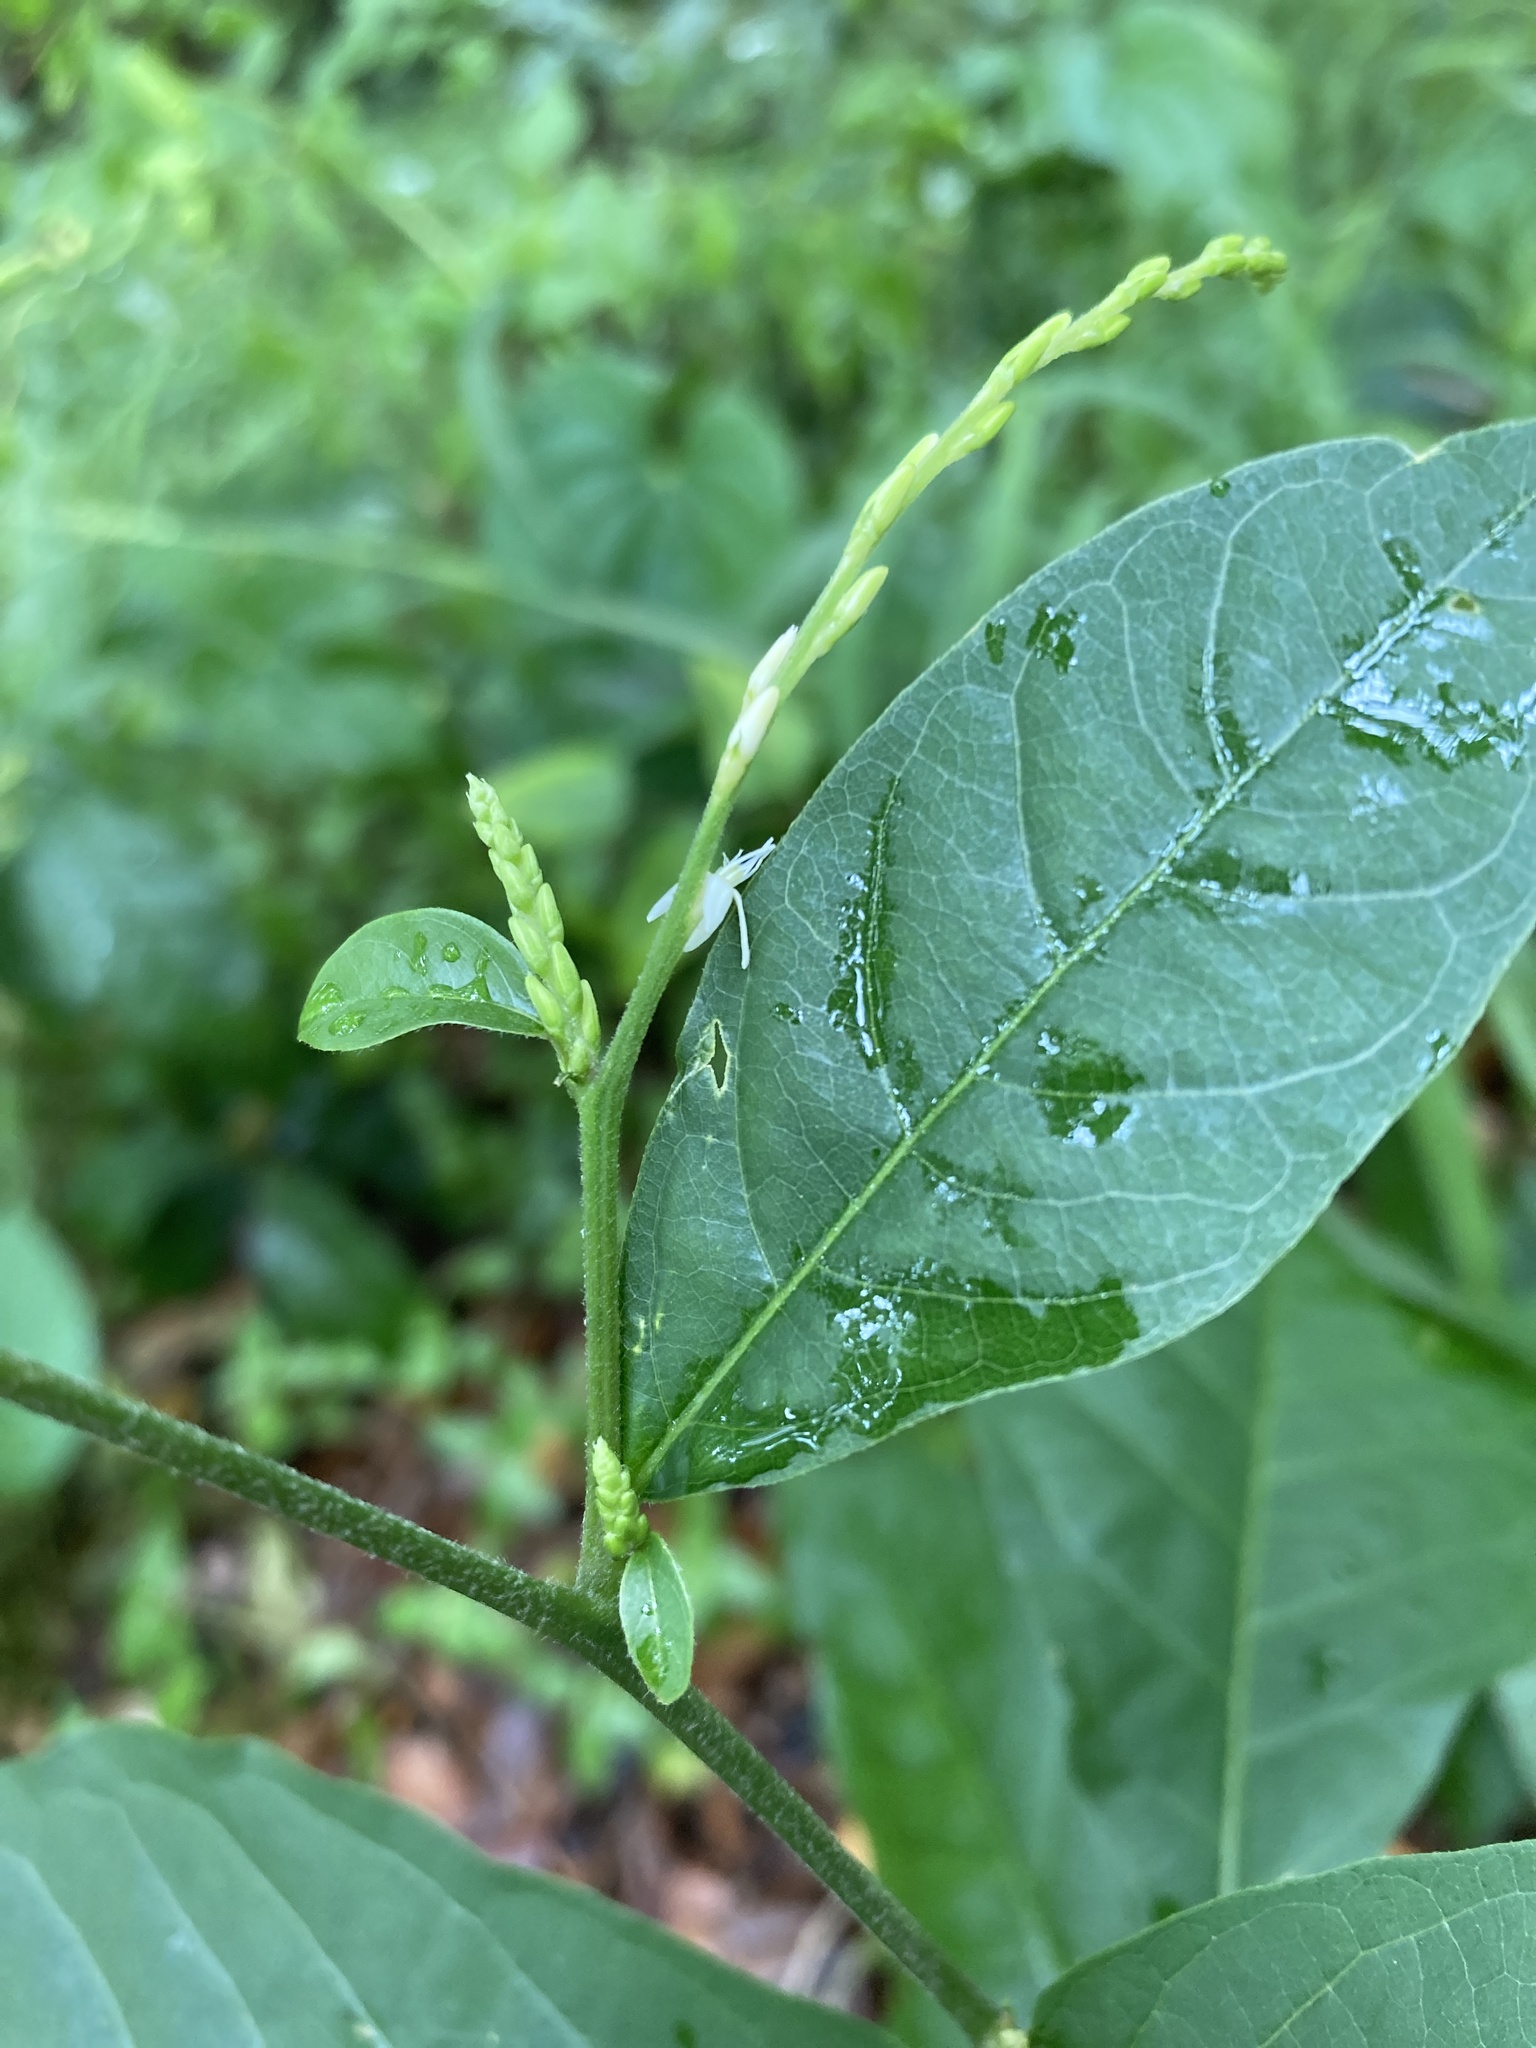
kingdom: Plantae
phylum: Tracheophyta
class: Magnoliopsida
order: Caryophyllales
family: Phytolaccaceae
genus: Petiveria
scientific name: Petiveria alliacea
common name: Garlicweed
